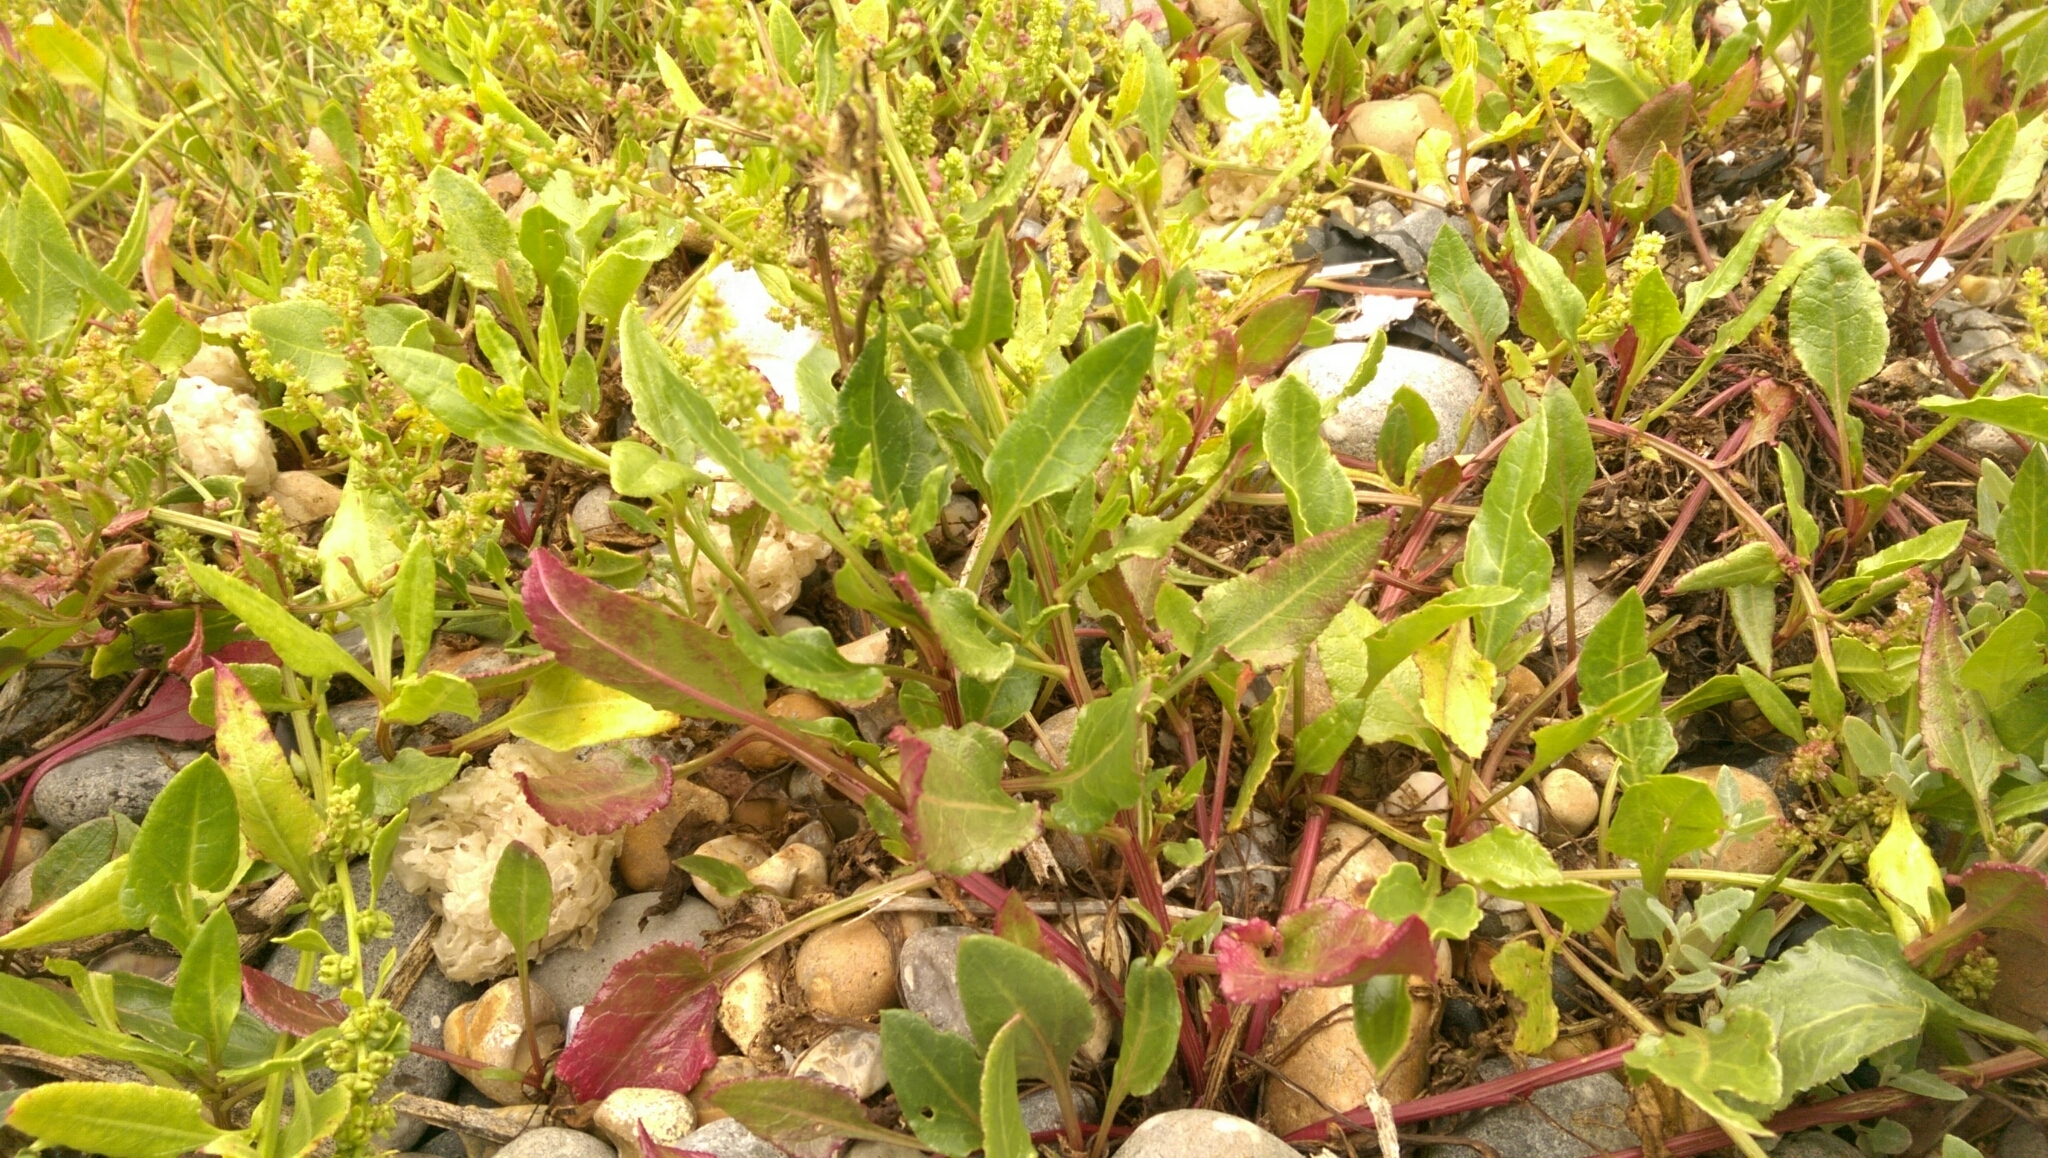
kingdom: Plantae
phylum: Tracheophyta
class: Magnoliopsida
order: Caryophyllales
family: Amaranthaceae
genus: Beta
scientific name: Beta vulgaris
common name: Beet
